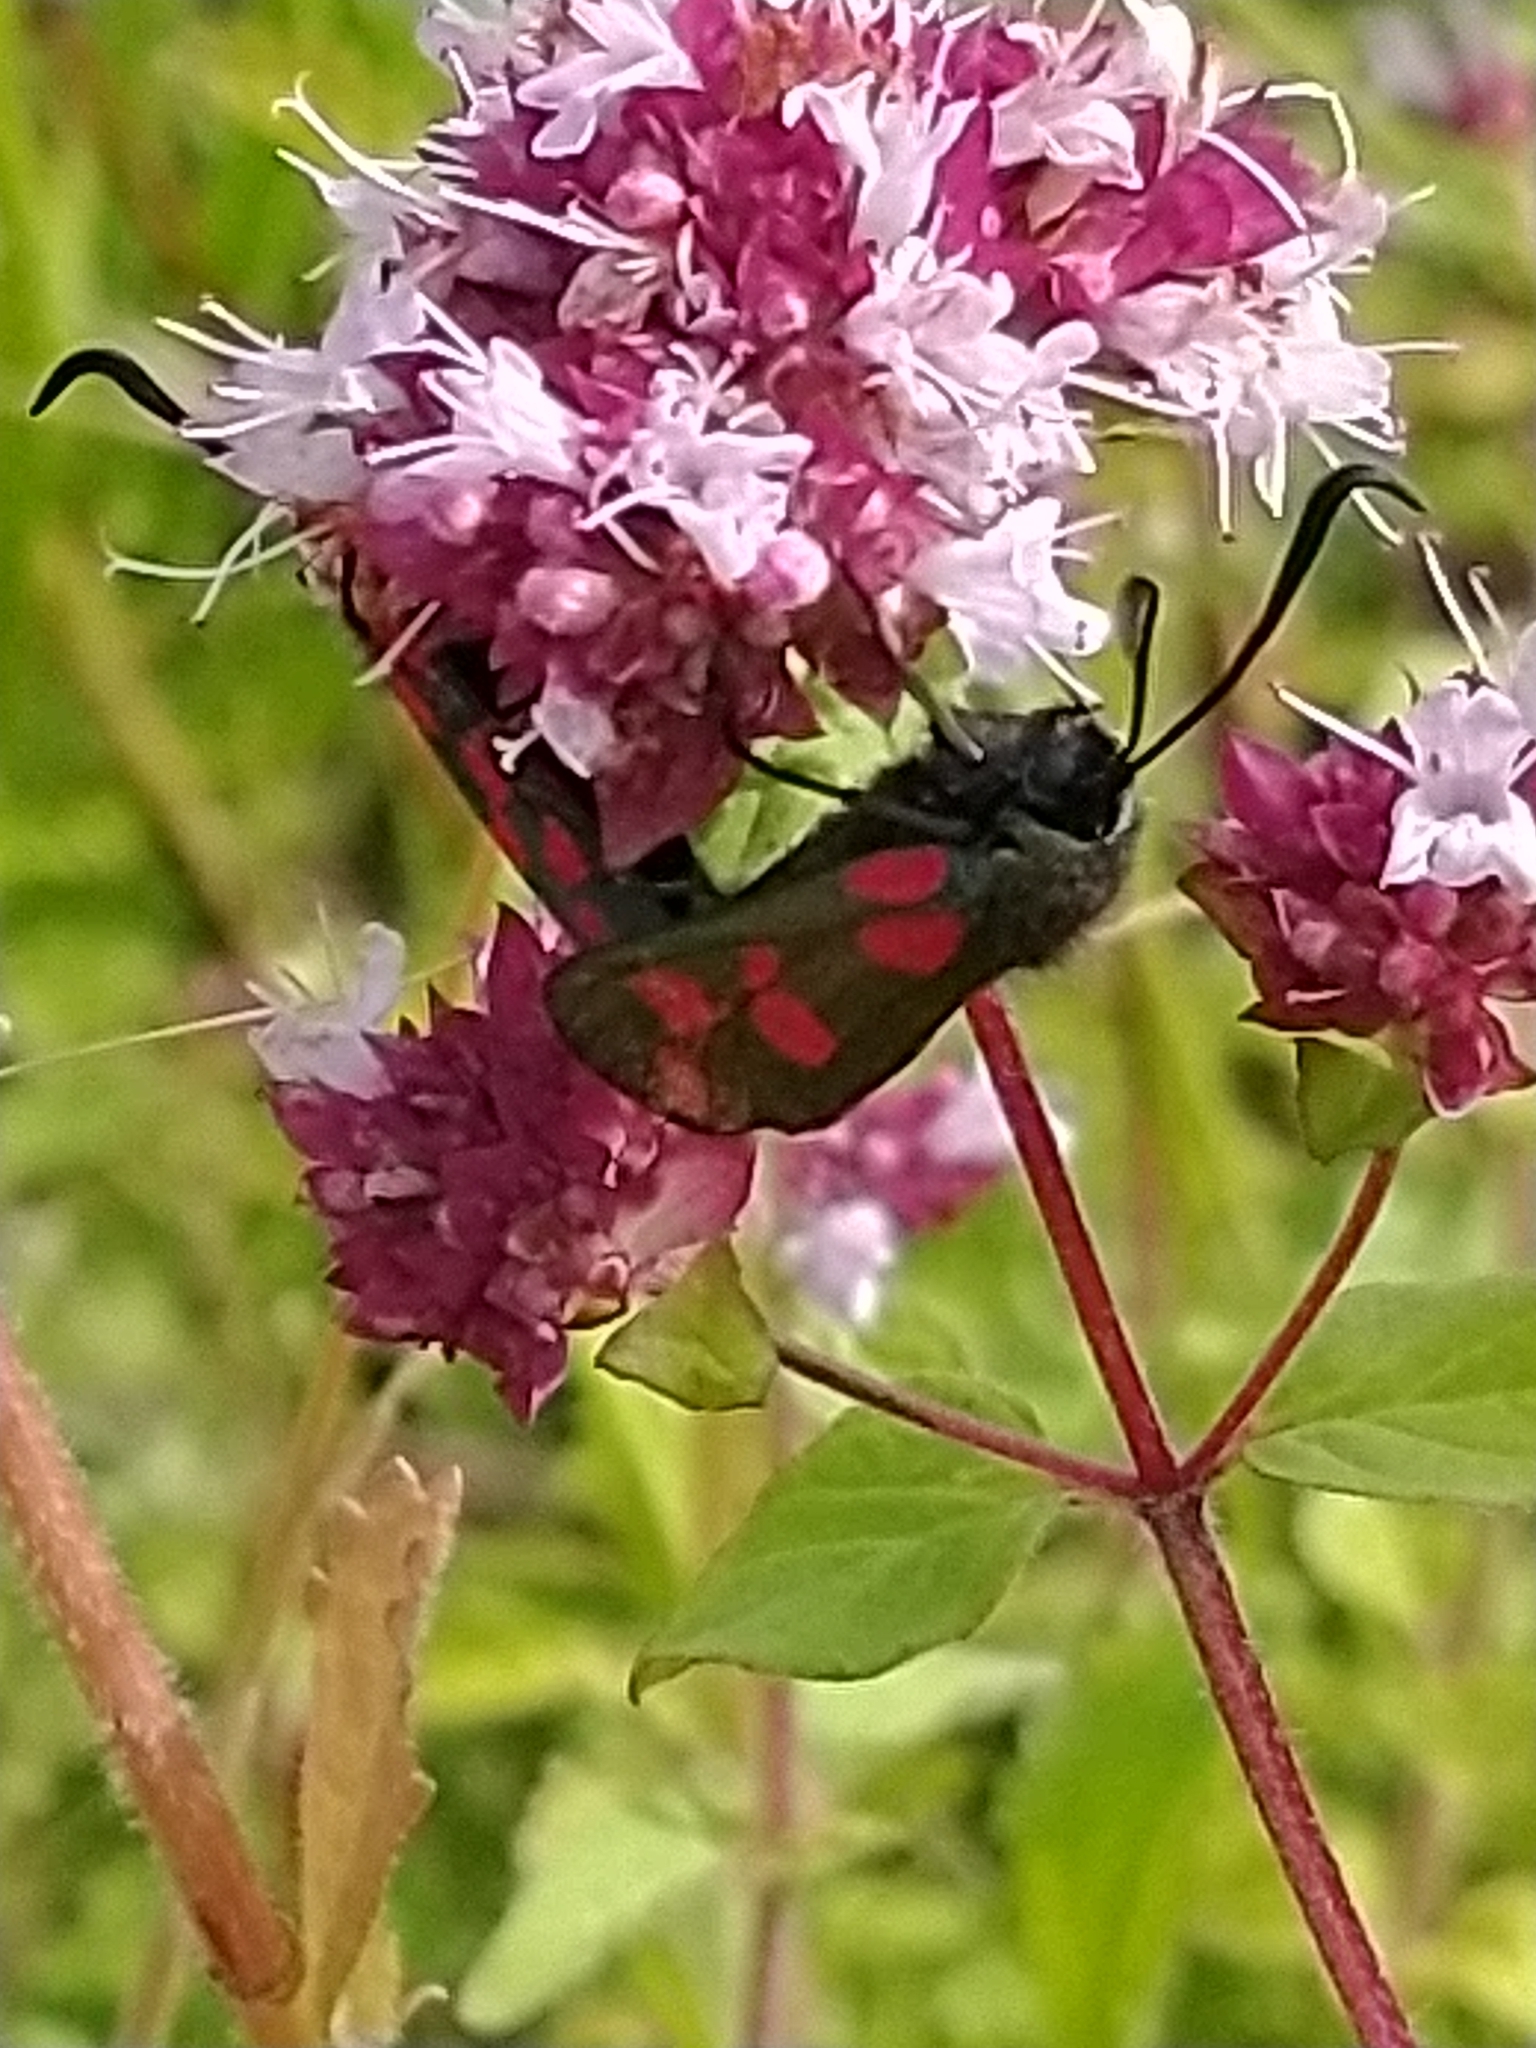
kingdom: Animalia
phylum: Arthropoda
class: Insecta
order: Lepidoptera
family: Zygaenidae
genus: Zygaena
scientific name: Zygaena filipendulae
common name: Six-spot burnet
